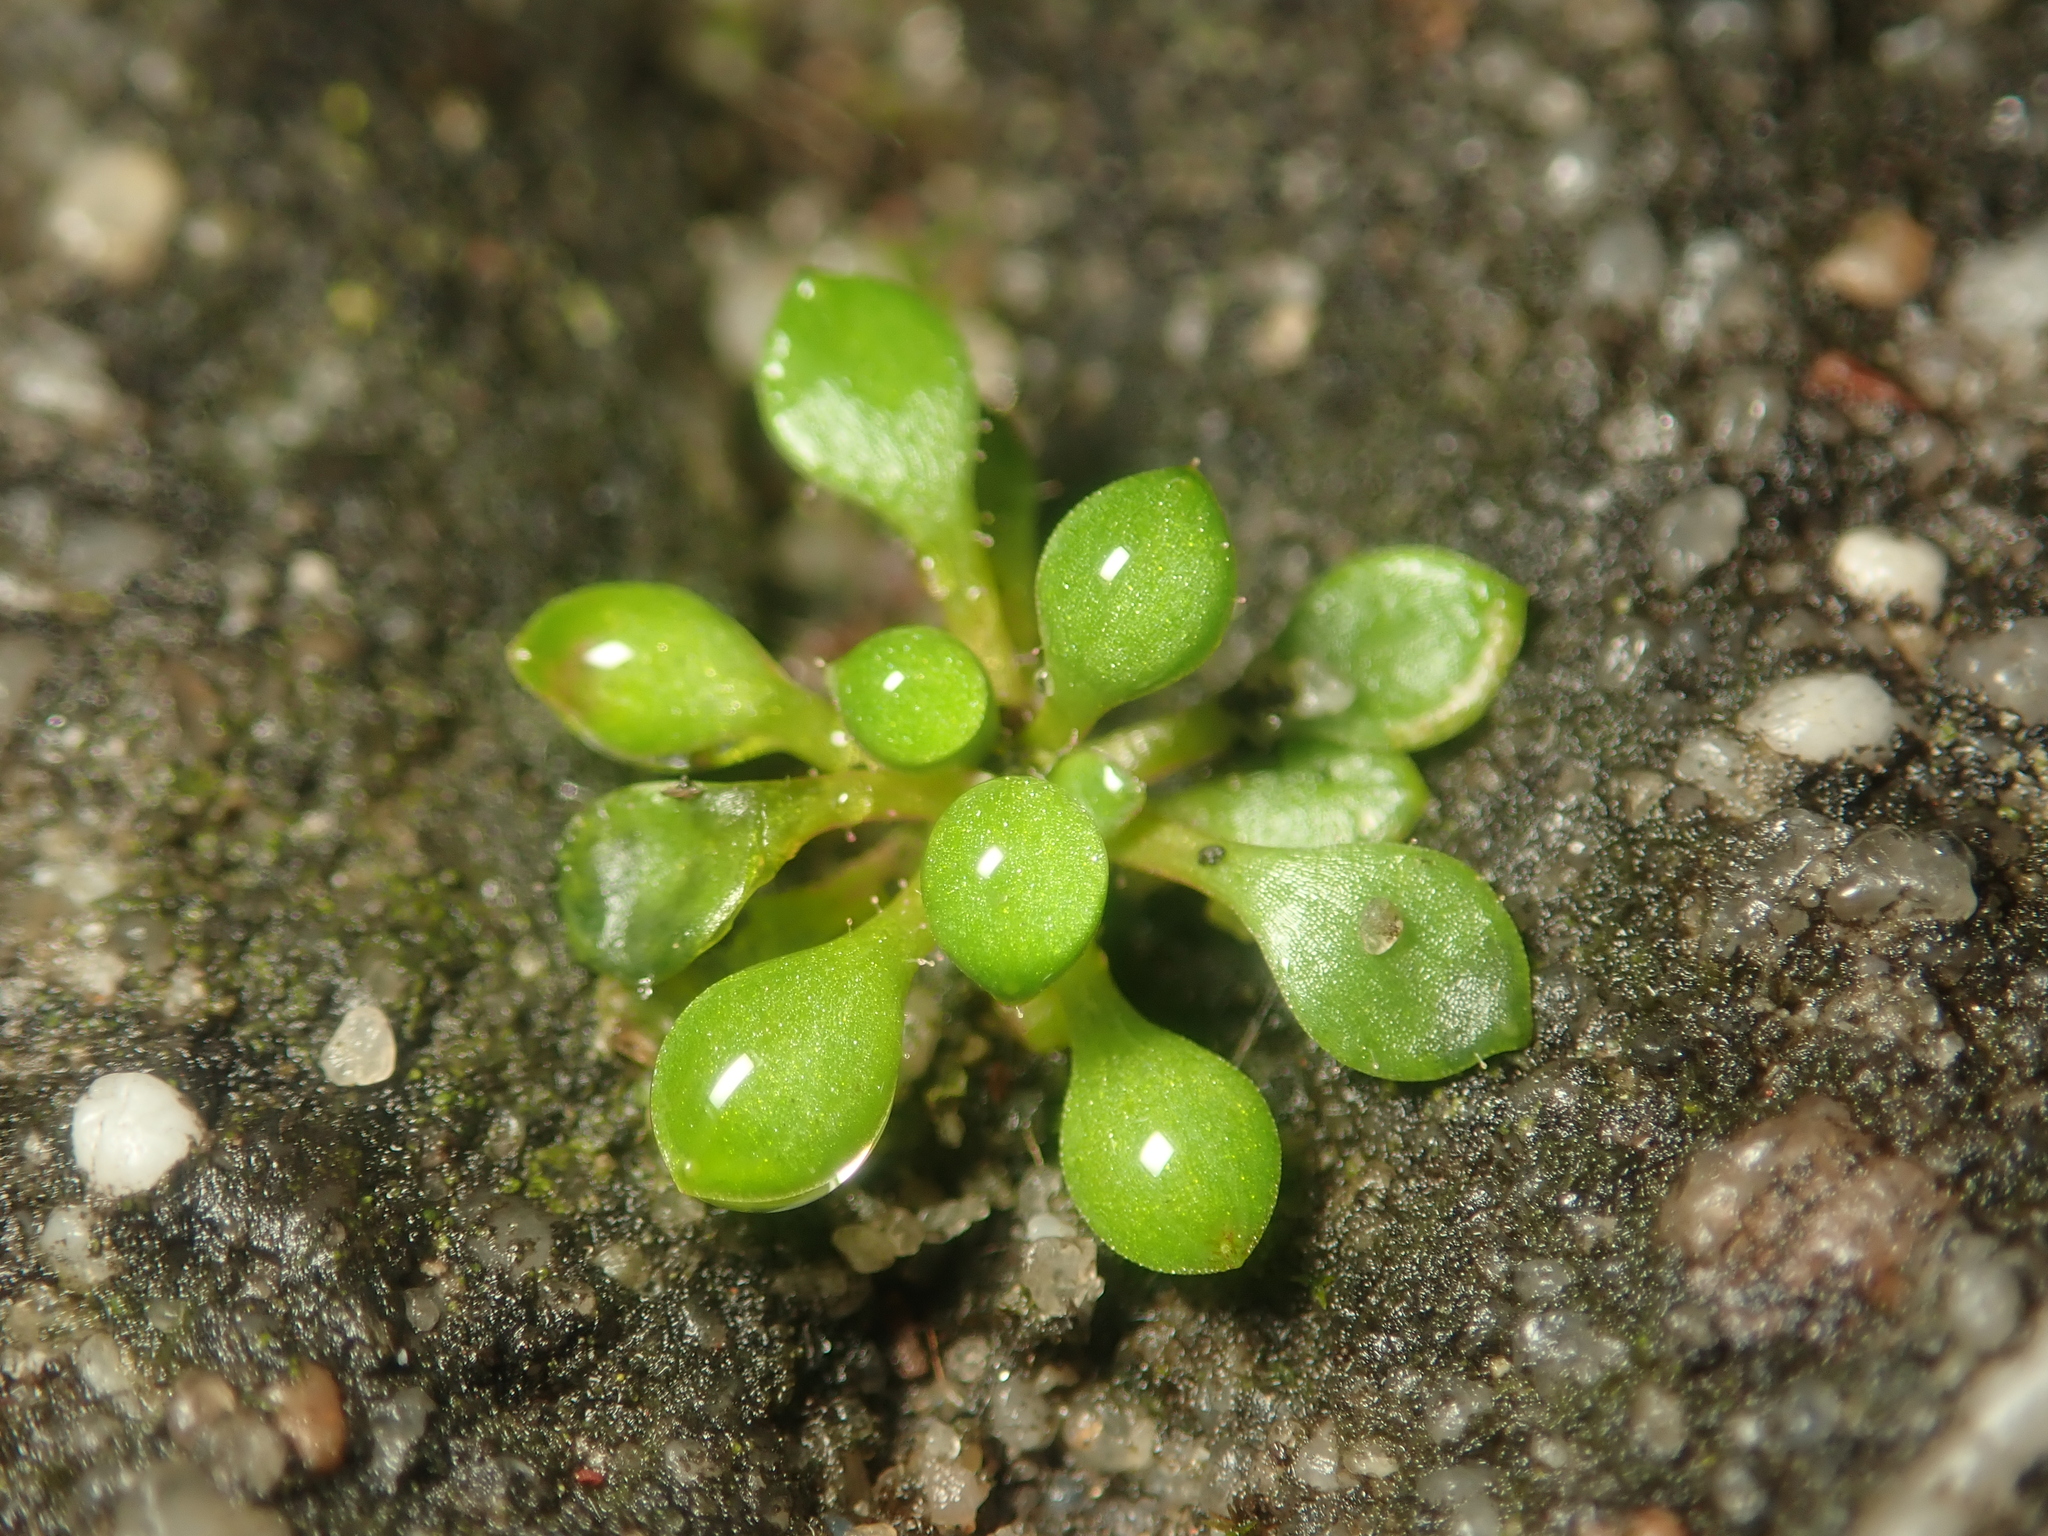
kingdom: Plantae
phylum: Tracheophyta
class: Magnoliopsida
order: Saxifragales
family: Saxifragaceae
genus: Saxifraga
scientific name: Saxifraga tridactylites
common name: Rue-leaved saxifrage
